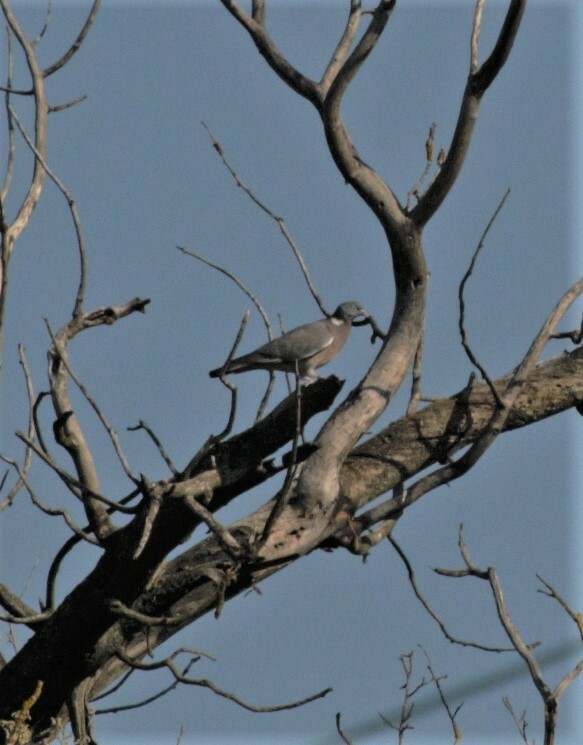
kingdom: Animalia
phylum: Chordata
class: Aves
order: Columbiformes
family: Columbidae
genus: Columba
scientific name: Columba palumbus
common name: Common wood pigeon
